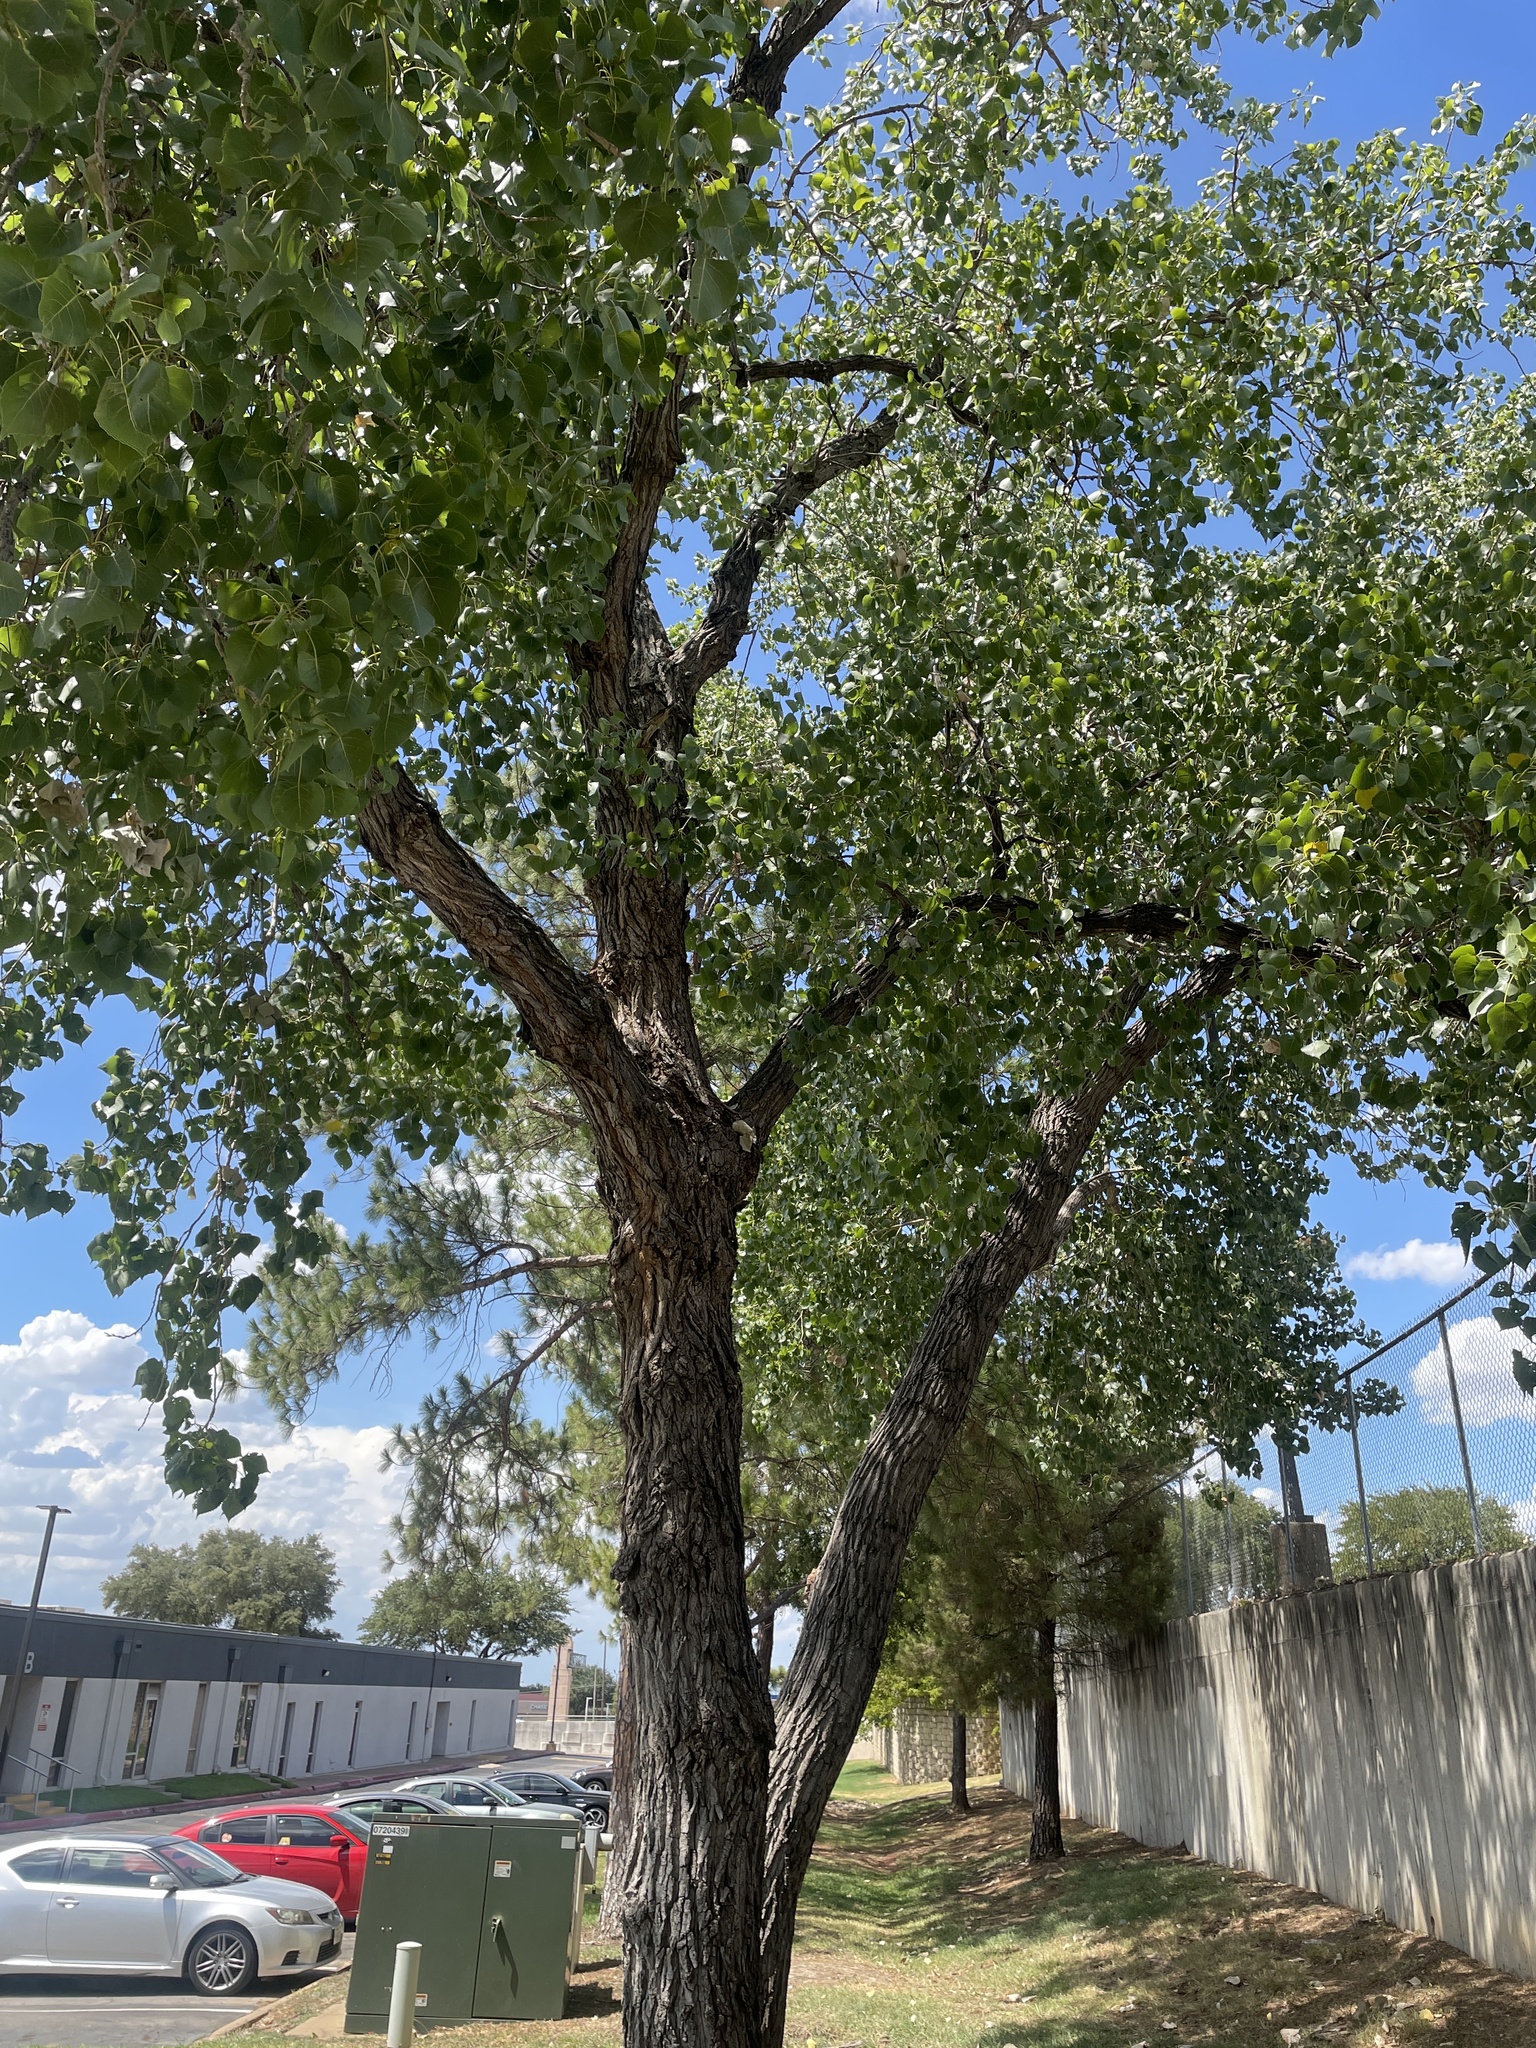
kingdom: Plantae
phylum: Tracheophyta
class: Magnoliopsida
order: Malpighiales
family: Salicaceae
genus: Populus
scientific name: Populus deltoides
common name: Eastern cottonwood
